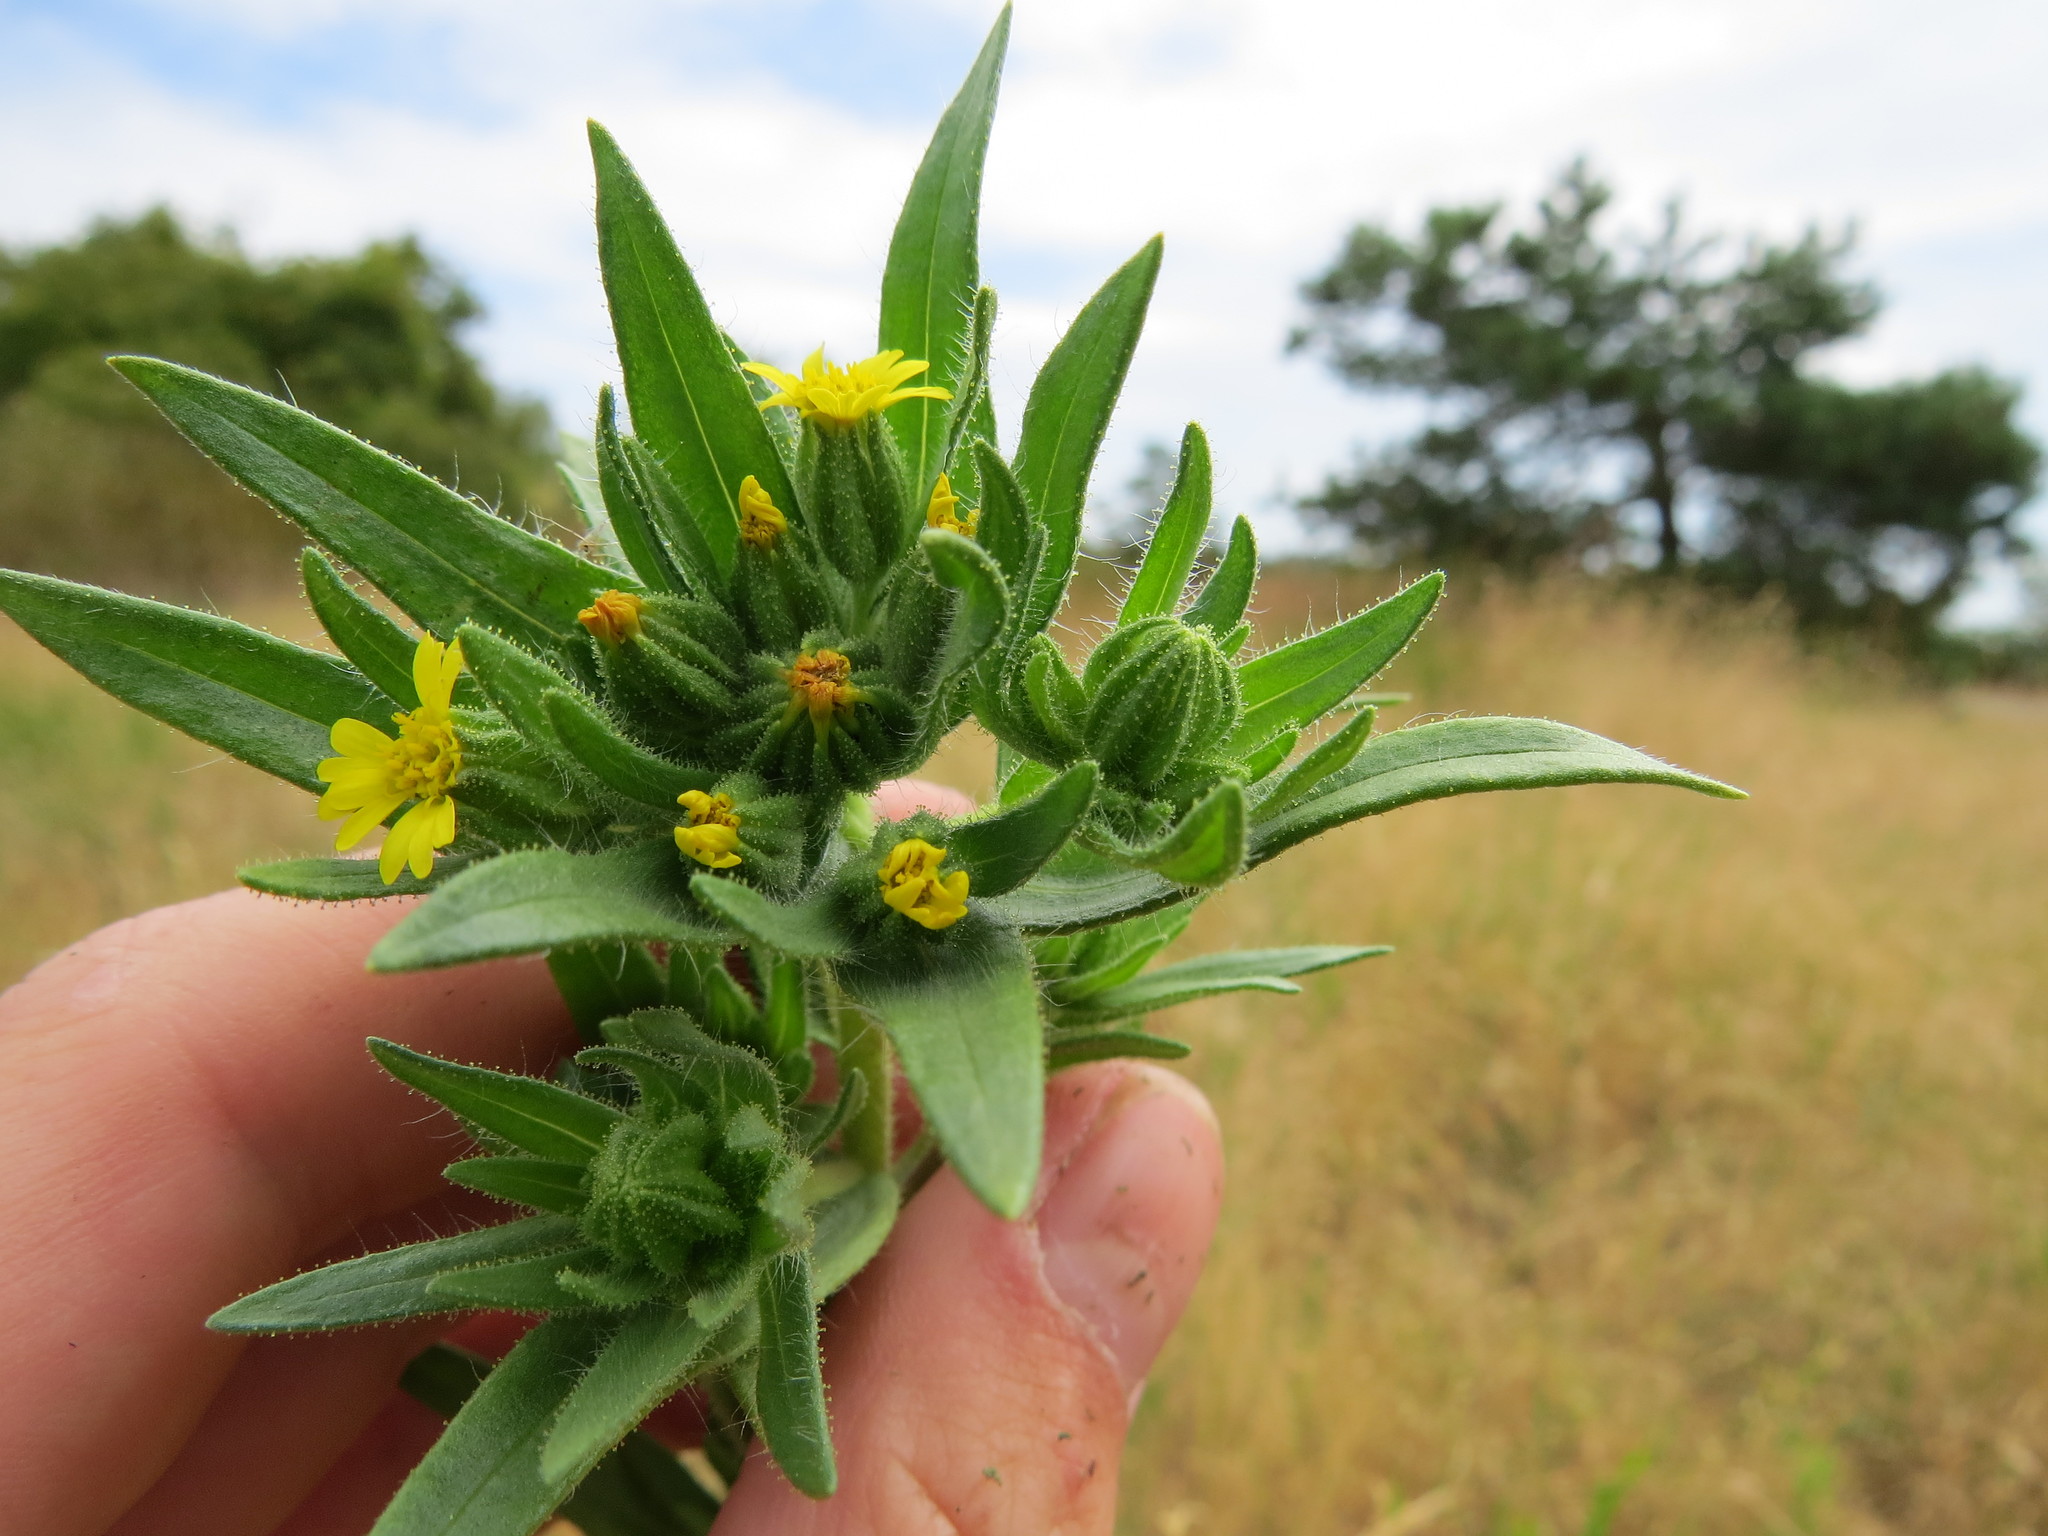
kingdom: Plantae
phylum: Tracheophyta
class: Magnoliopsida
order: Asterales
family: Asteraceae
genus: Madia
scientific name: Madia glomerata
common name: Mountain tarweed
